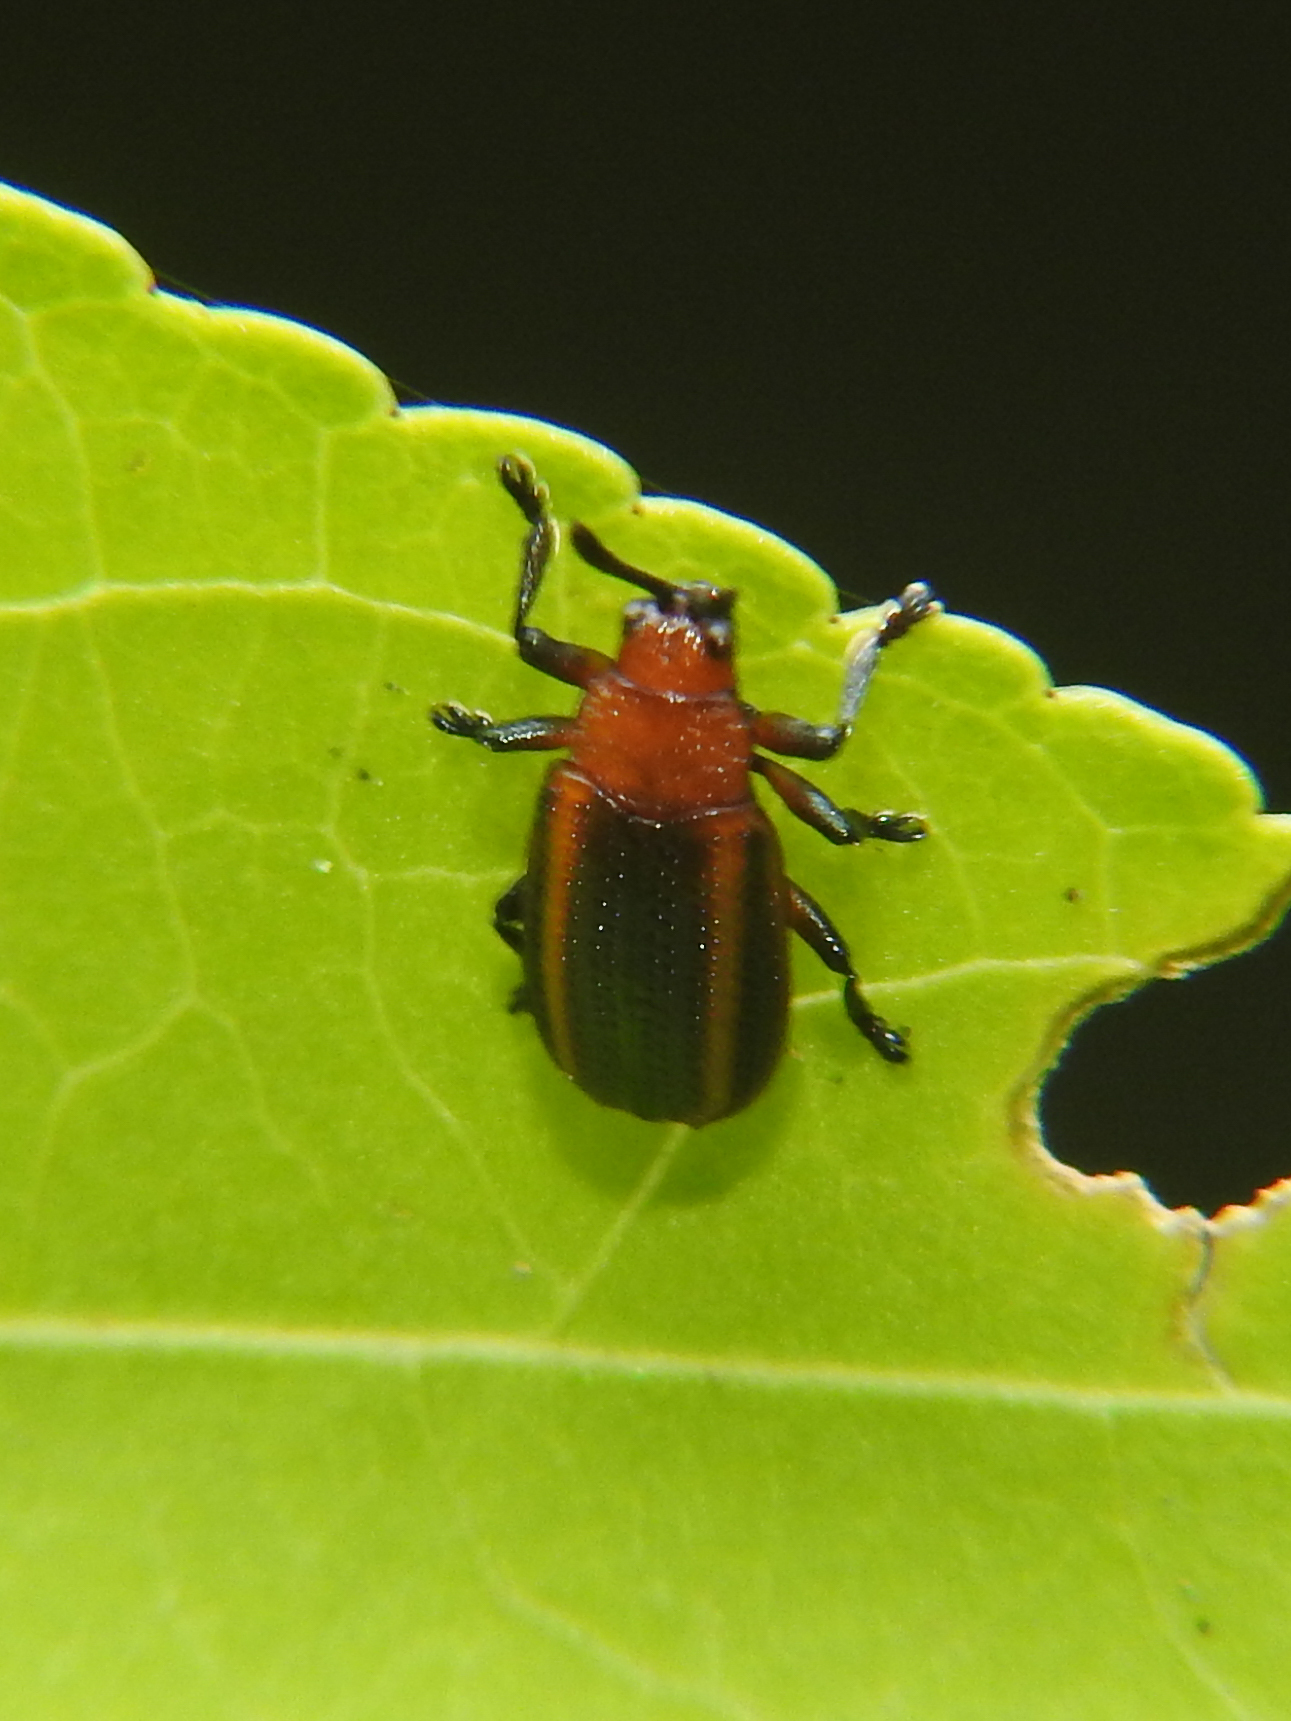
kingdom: Animalia
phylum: Arthropoda
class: Insecta
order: Coleoptera
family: Chrysomelidae
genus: Microrhopala
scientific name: Microrhopala vittata
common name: Goldenrod leaf miner beetle
